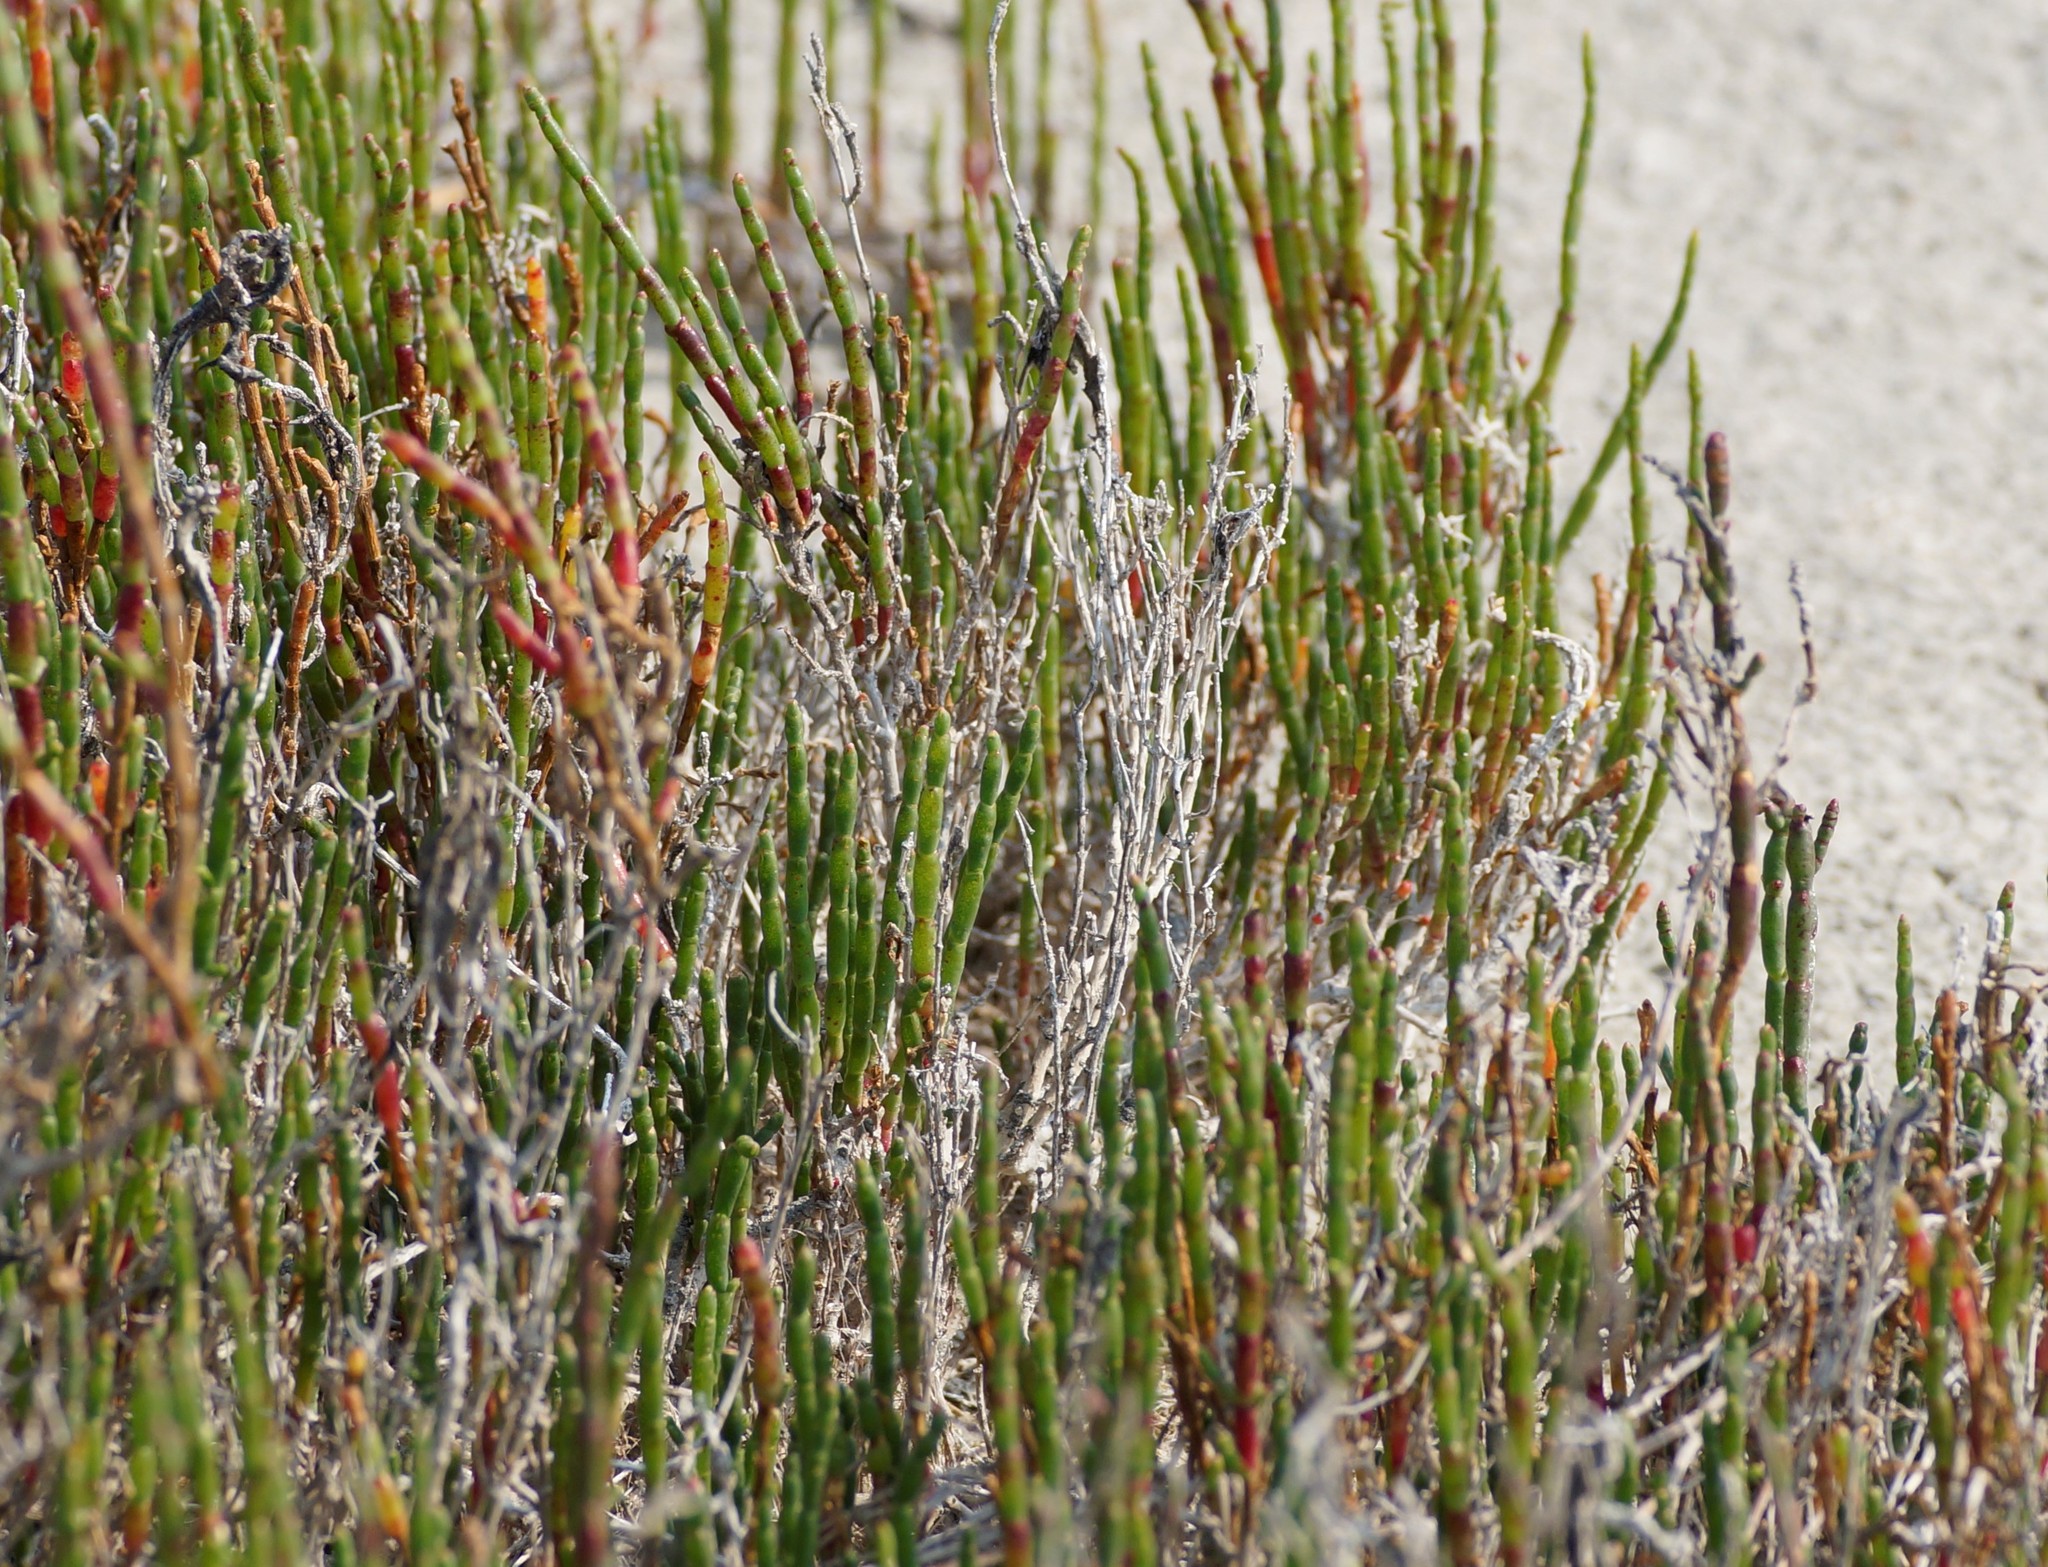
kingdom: Plantae
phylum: Tracheophyta
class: Magnoliopsida
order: Caryophyllales
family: Amaranthaceae
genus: Salicornia
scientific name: Salicornia quinqueflora
